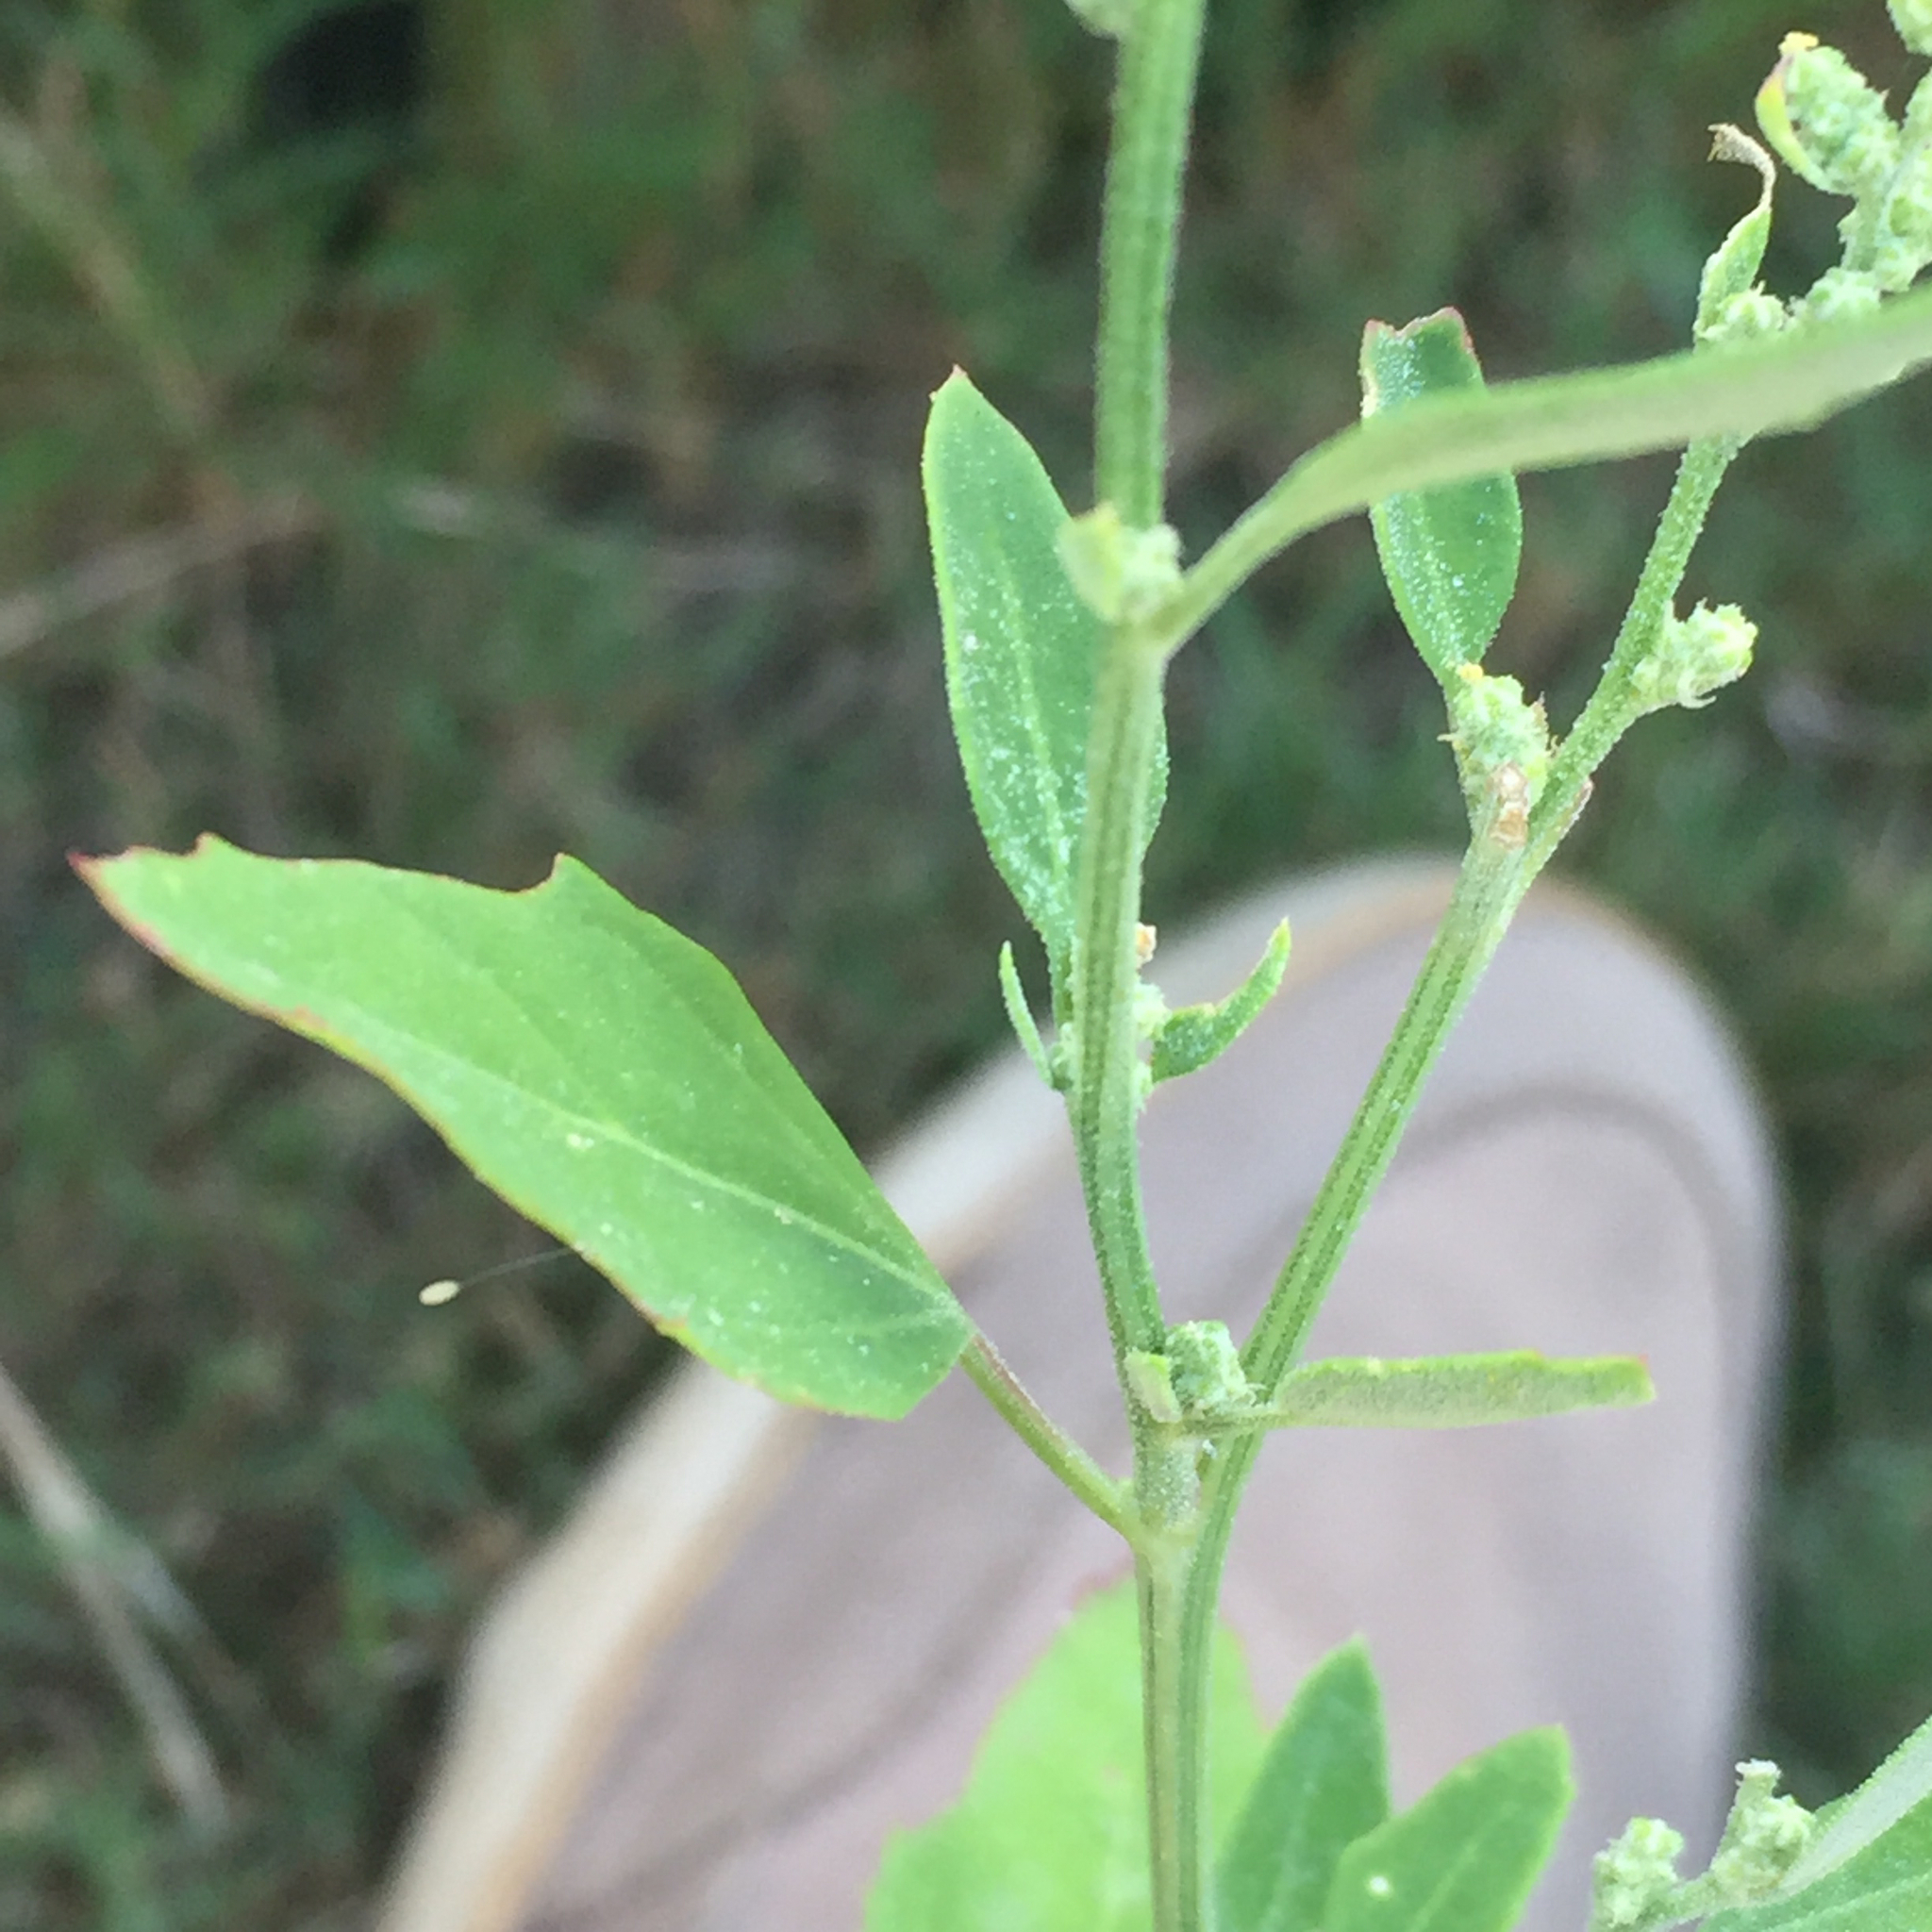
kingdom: Plantae
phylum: Tracheophyta
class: Magnoliopsida
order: Caryophyllales
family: Amaranthaceae
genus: Chenopodium
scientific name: Chenopodium album
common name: Fat-hen
